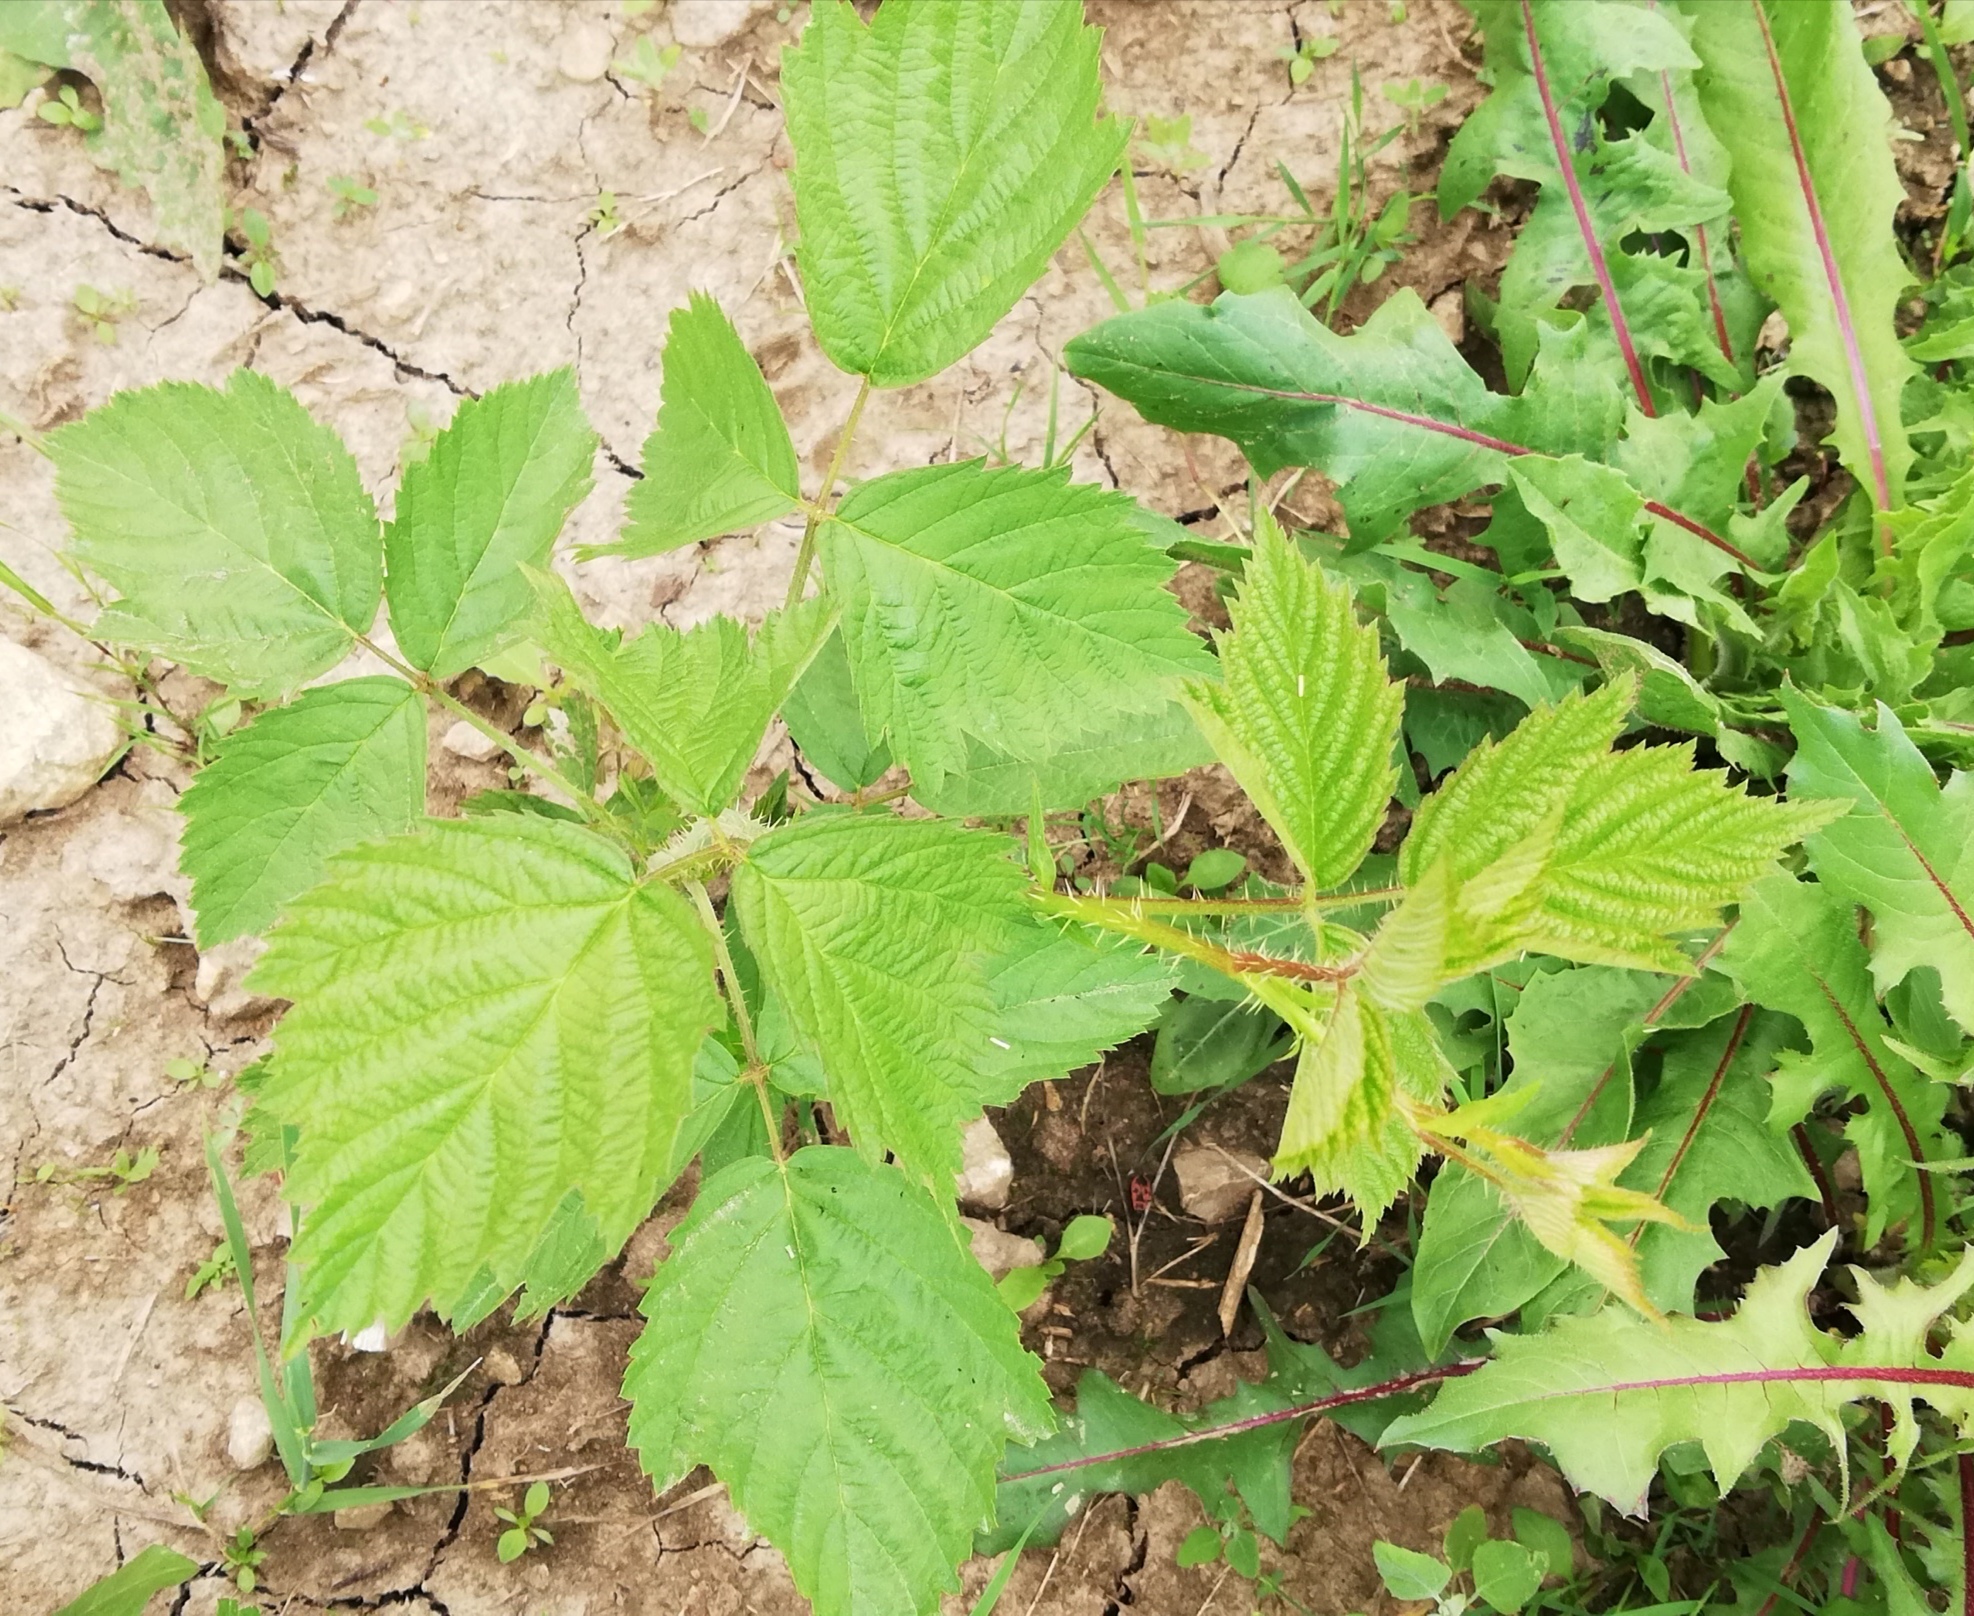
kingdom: Plantae
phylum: Tracheophyta
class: Magnoliopsida
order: Rosales
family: Rosaceae
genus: Rubus
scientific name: Rubus caesius
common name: Dewberry
